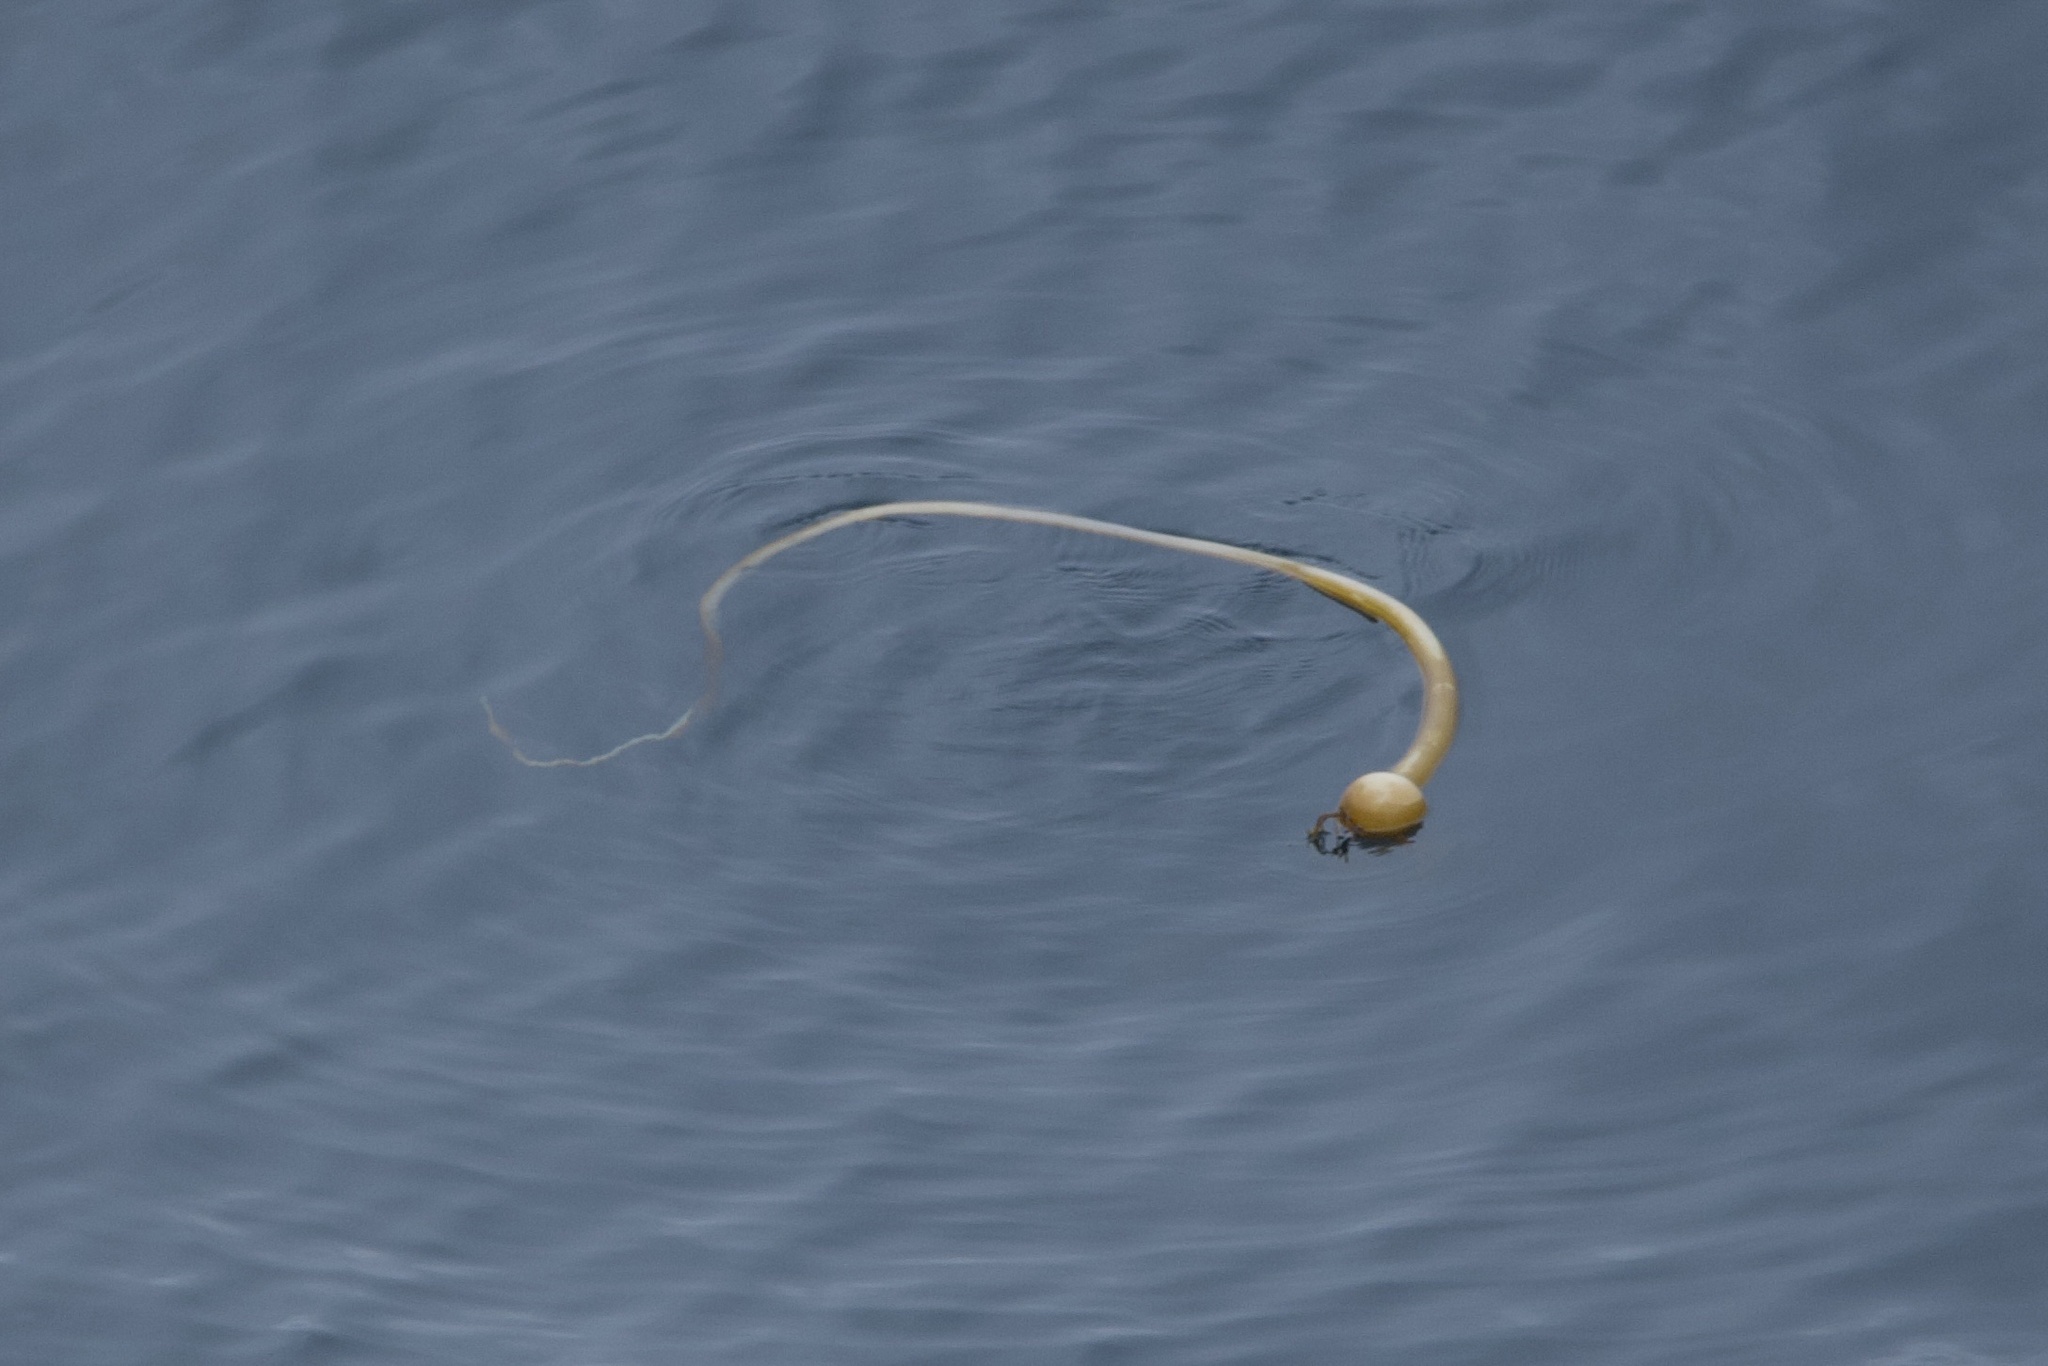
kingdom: Chromista
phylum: Ochrophyta
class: Phaeophyceae
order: Laminariales
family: Laminariaceae
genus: Nereocystis
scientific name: Nereocystis luetkeana
